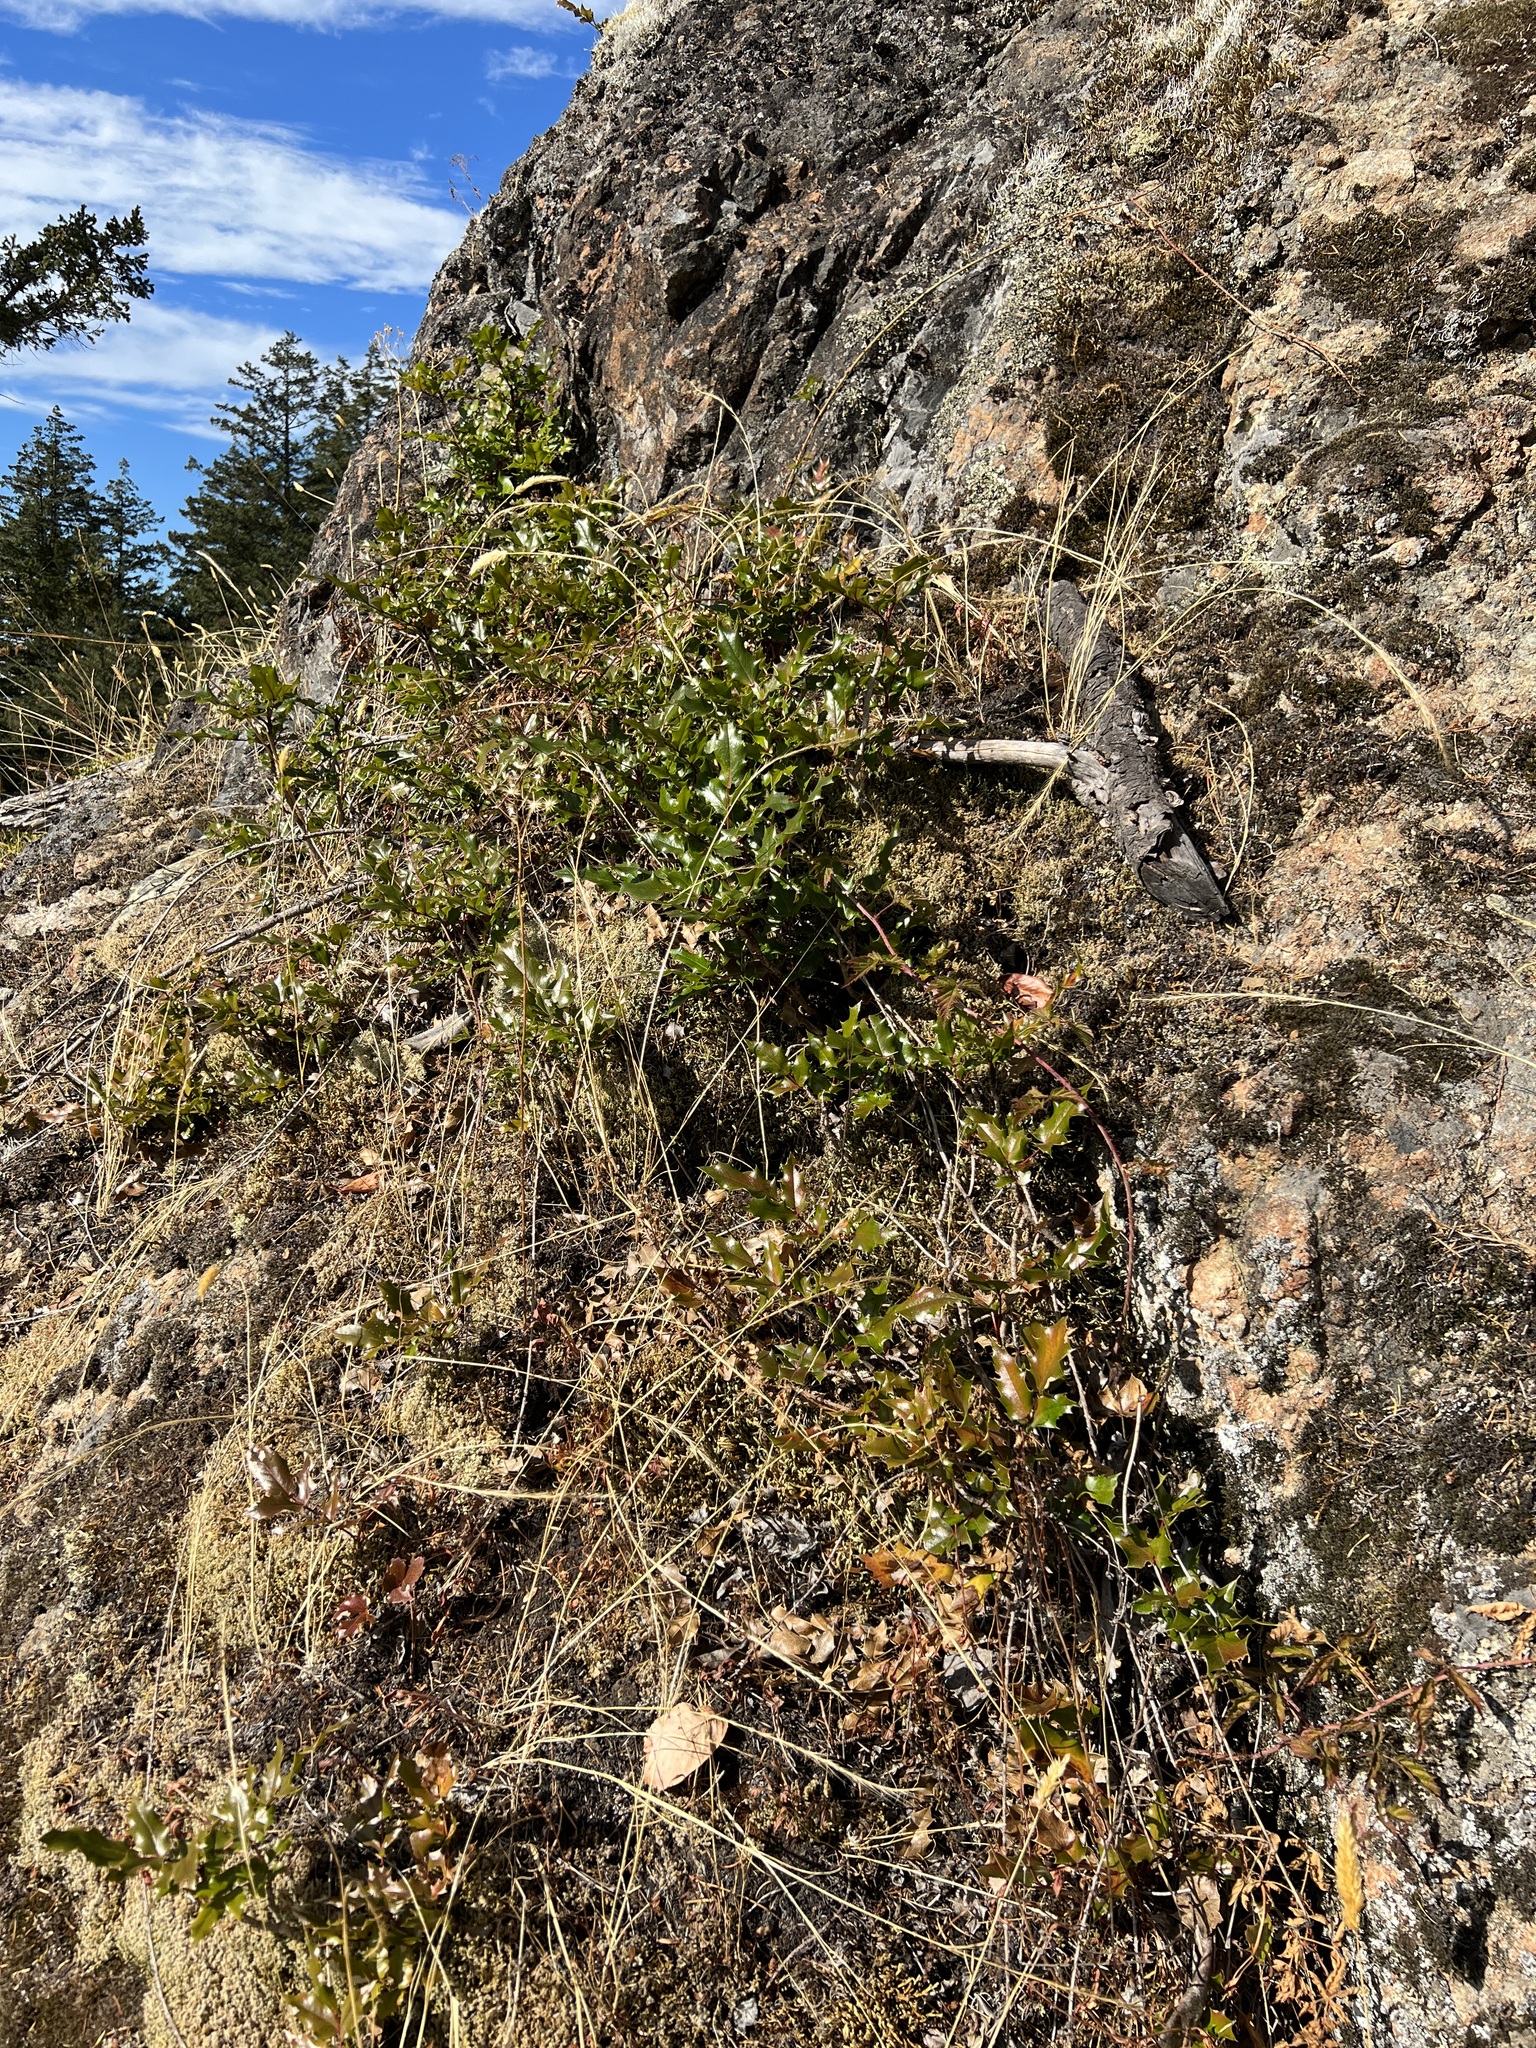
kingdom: Plantae
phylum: Tracheophyta
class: Magnoliopsida
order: Ranunculales
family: Berberidaceae
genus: Mahonia
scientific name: Mahonia aquifolium
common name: Oregon-grape
